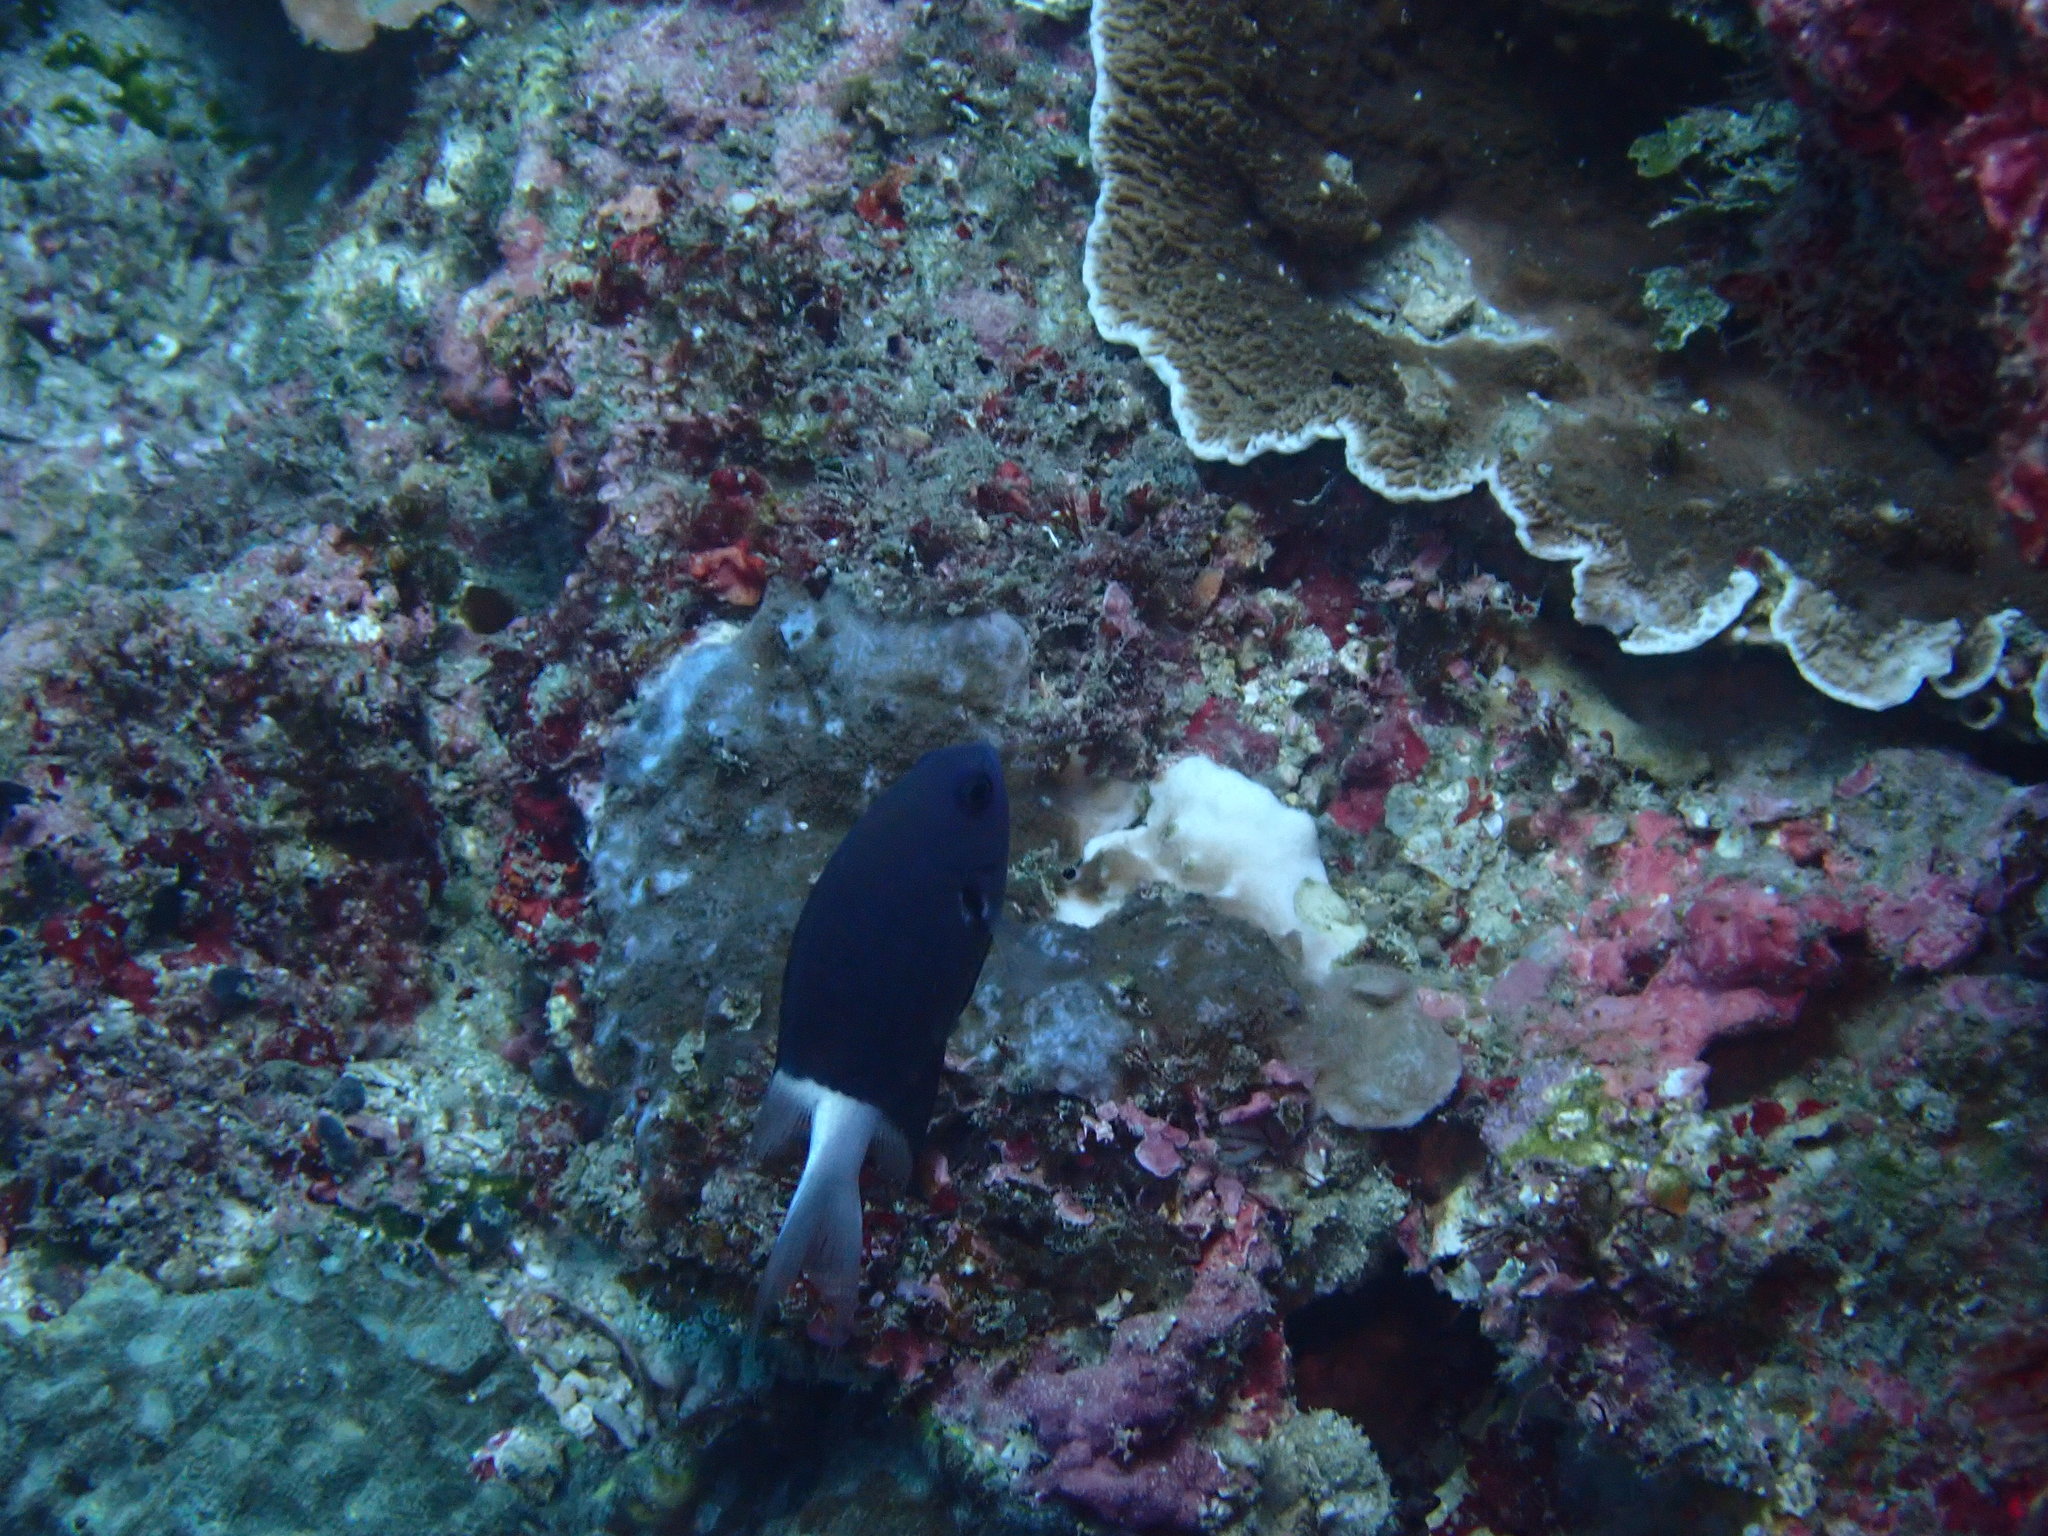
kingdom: Animalia
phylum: Chordata
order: Perciformes
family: Pomacentridae
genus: Pycnochromis
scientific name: Pycnochromis margaritifer
